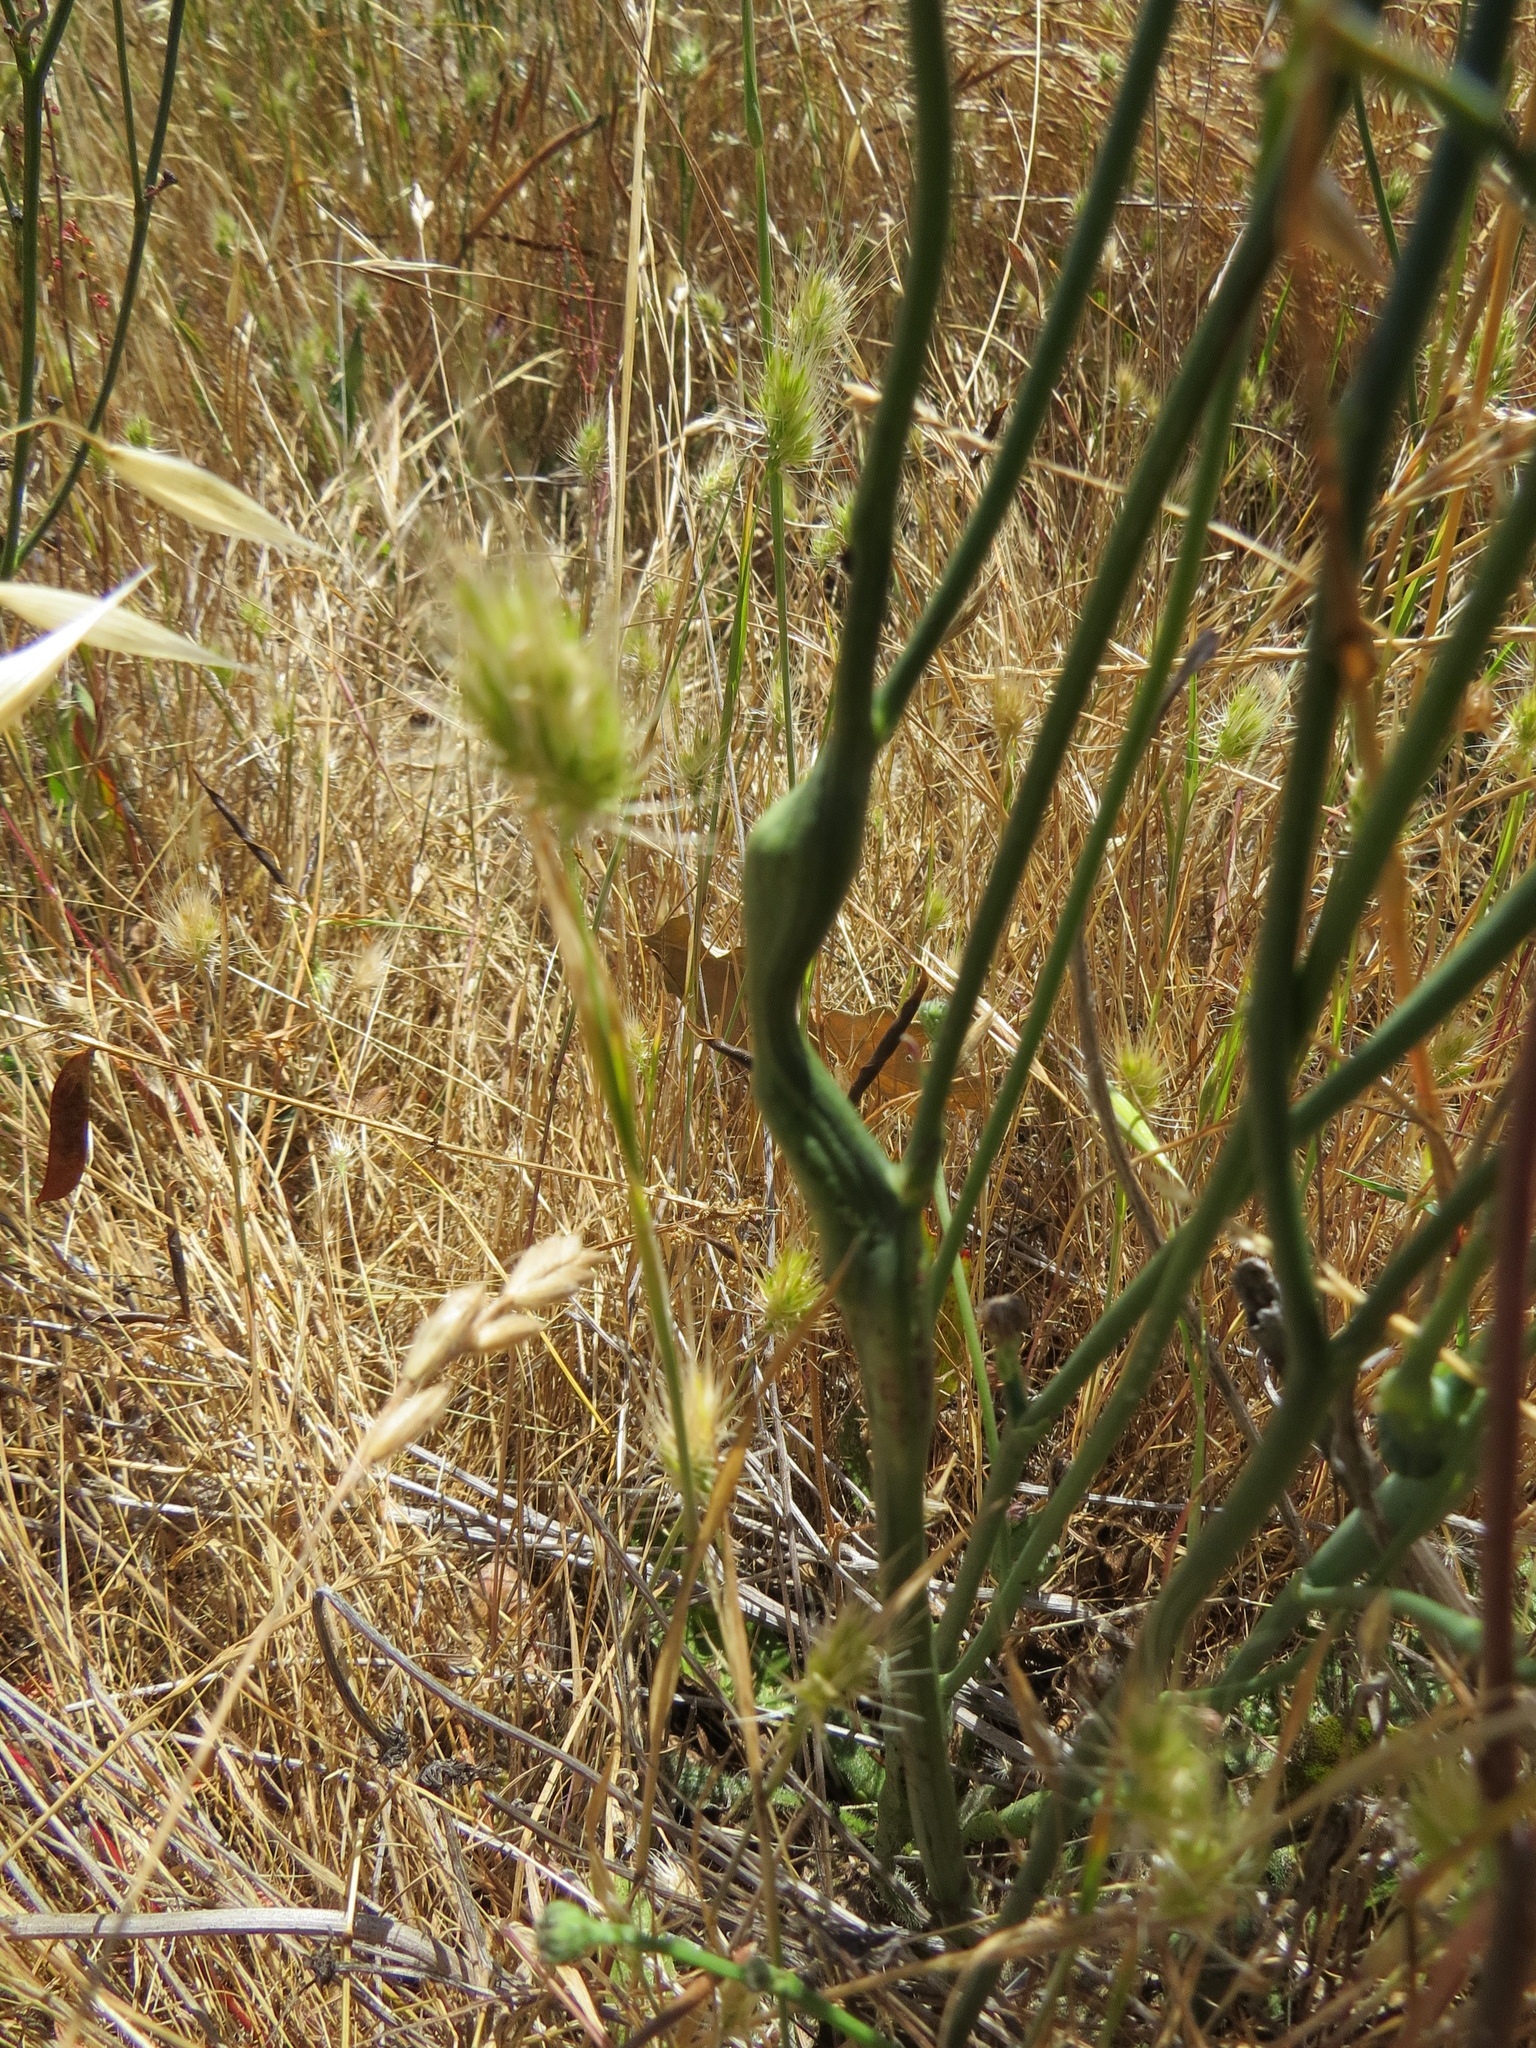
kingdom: Animalia
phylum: Arthropoda
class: Insecta
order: Hymenoptera
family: Cynipidae
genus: Phanacis
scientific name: Phanacis hypochoeridis
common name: Gall wasp
